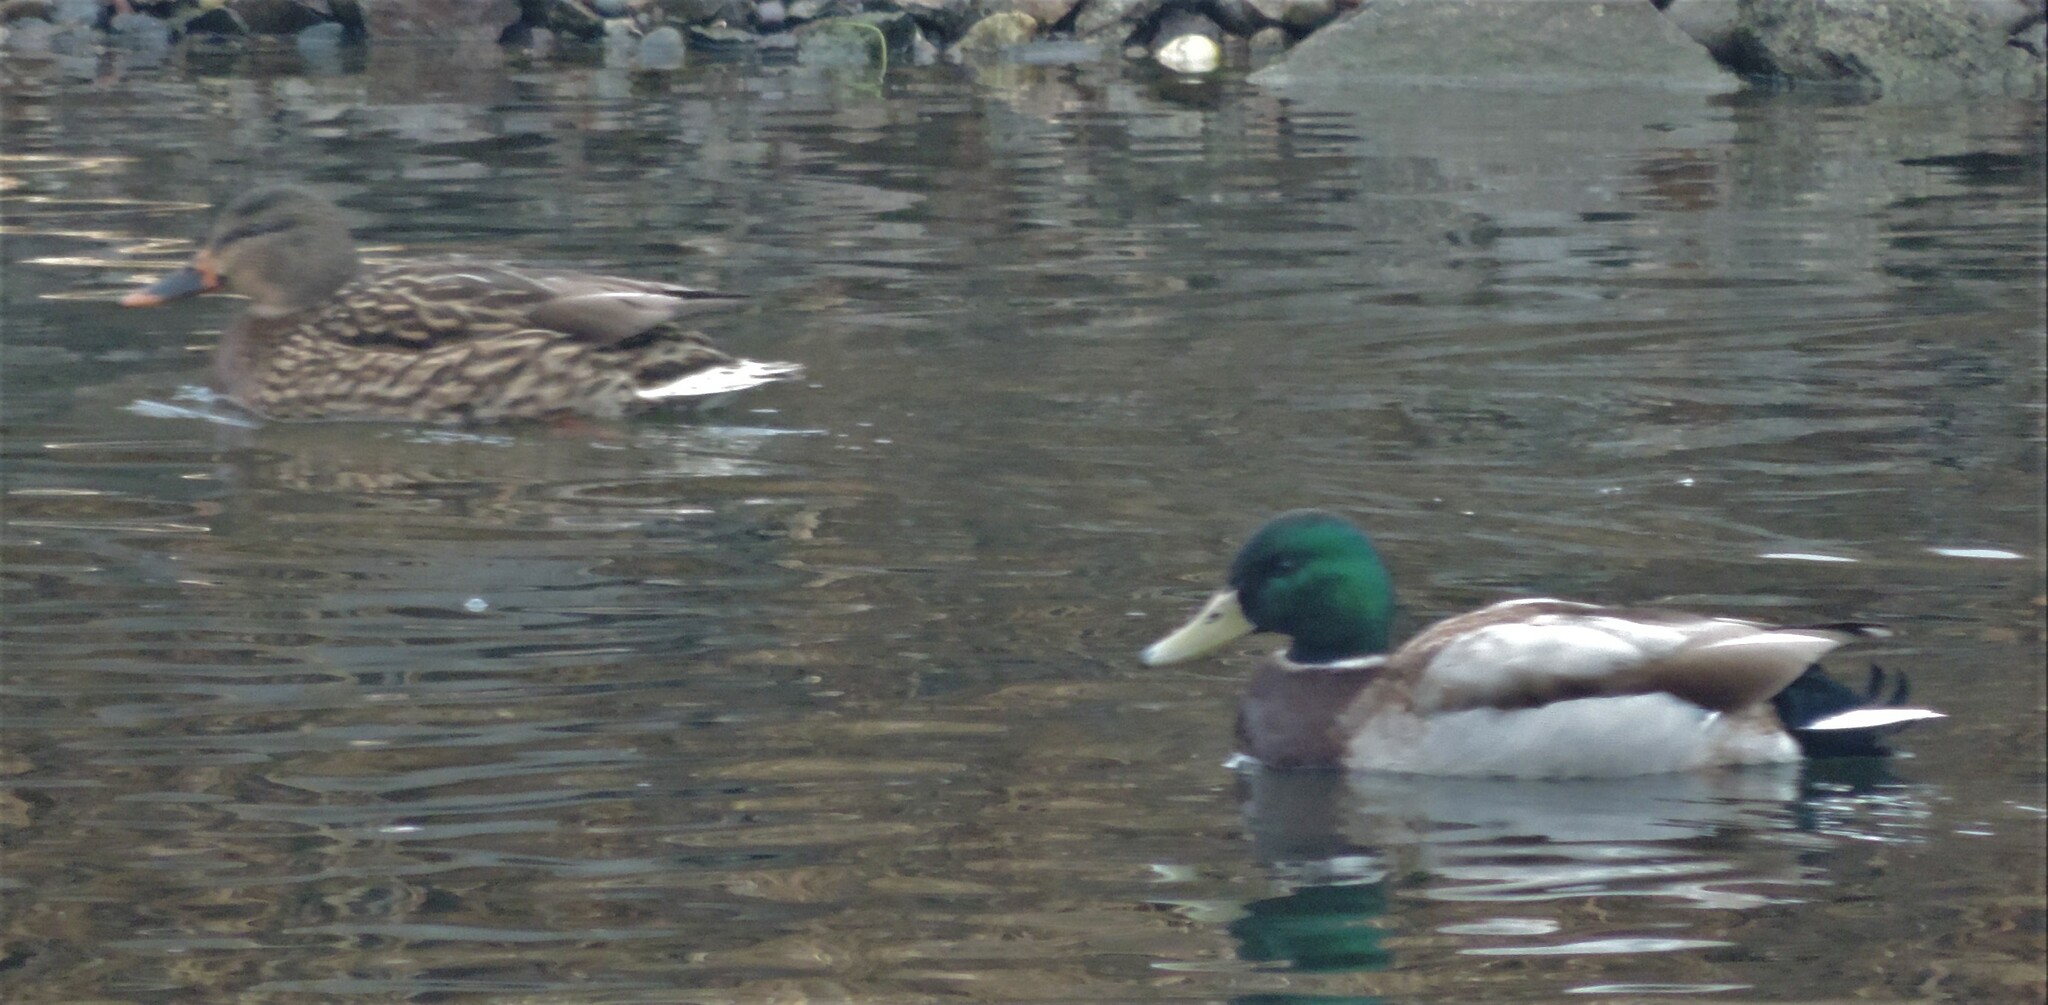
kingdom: Animalia
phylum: Chordata
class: Aves
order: Anseriformes
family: Anatidae
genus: Anas
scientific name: Anas platyrhynchos
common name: Mallard
